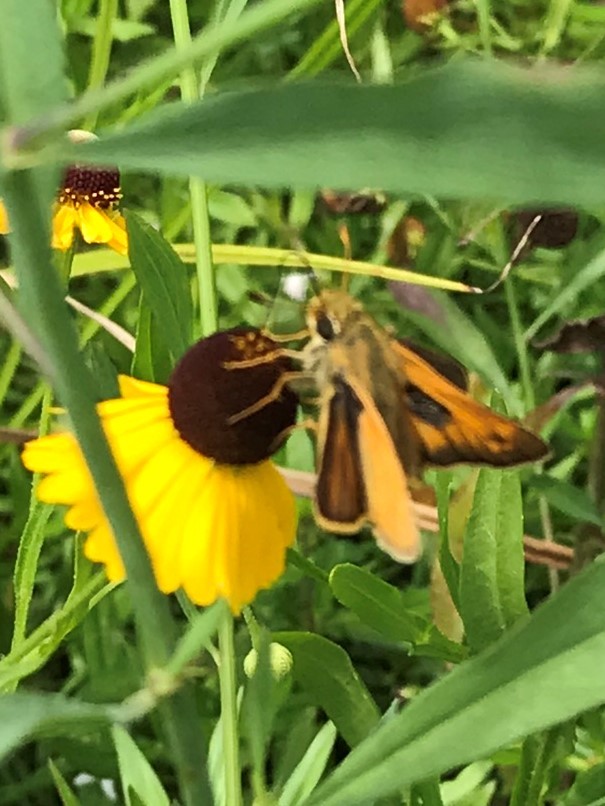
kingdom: Animalia
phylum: Arthropoda
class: Insecta
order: Lepidoptera
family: Hesperiidae
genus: Atalopedes
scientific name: Atalopedes
